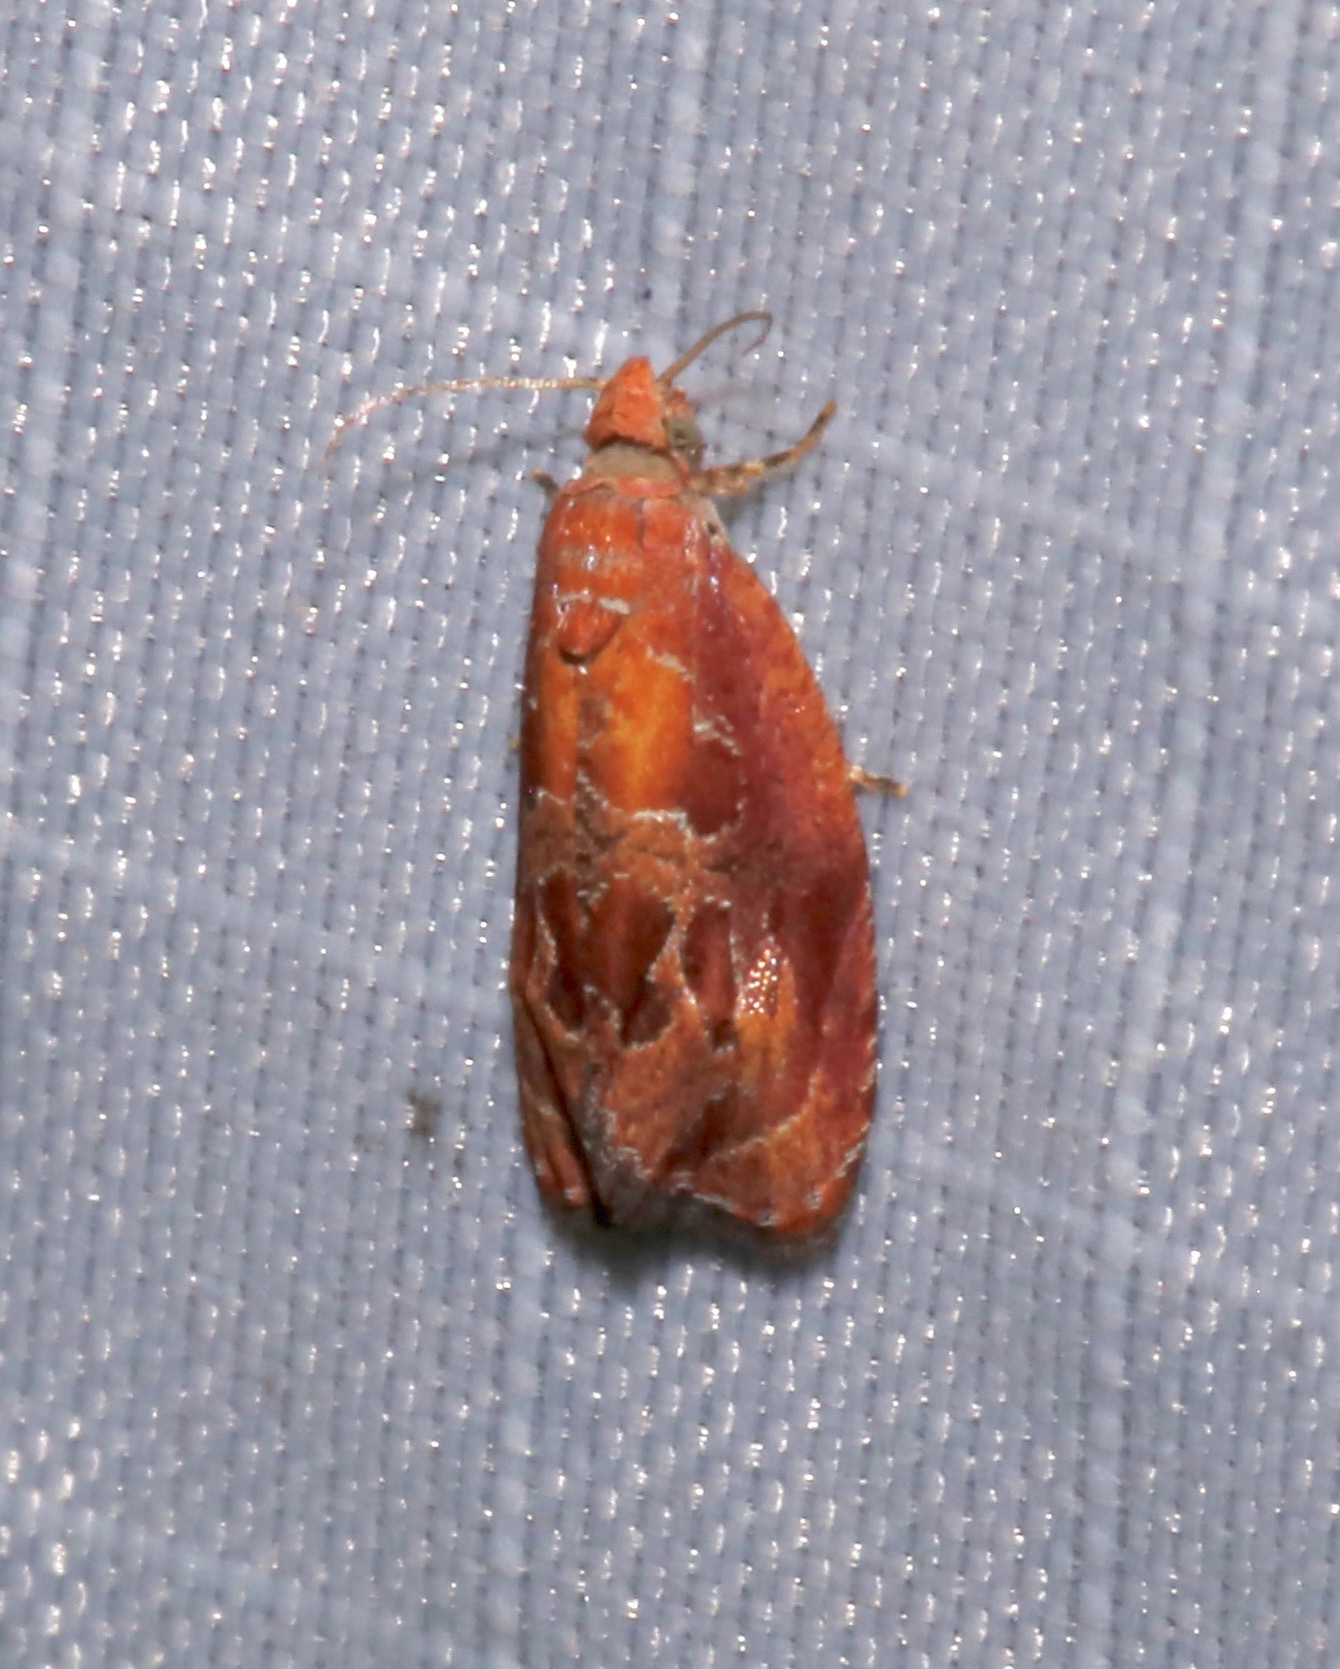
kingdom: Animalia
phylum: Arthropoda
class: Insecta
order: Lepidoptera
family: Tortricidae
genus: Zomaria
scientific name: Zomaria andromedana
